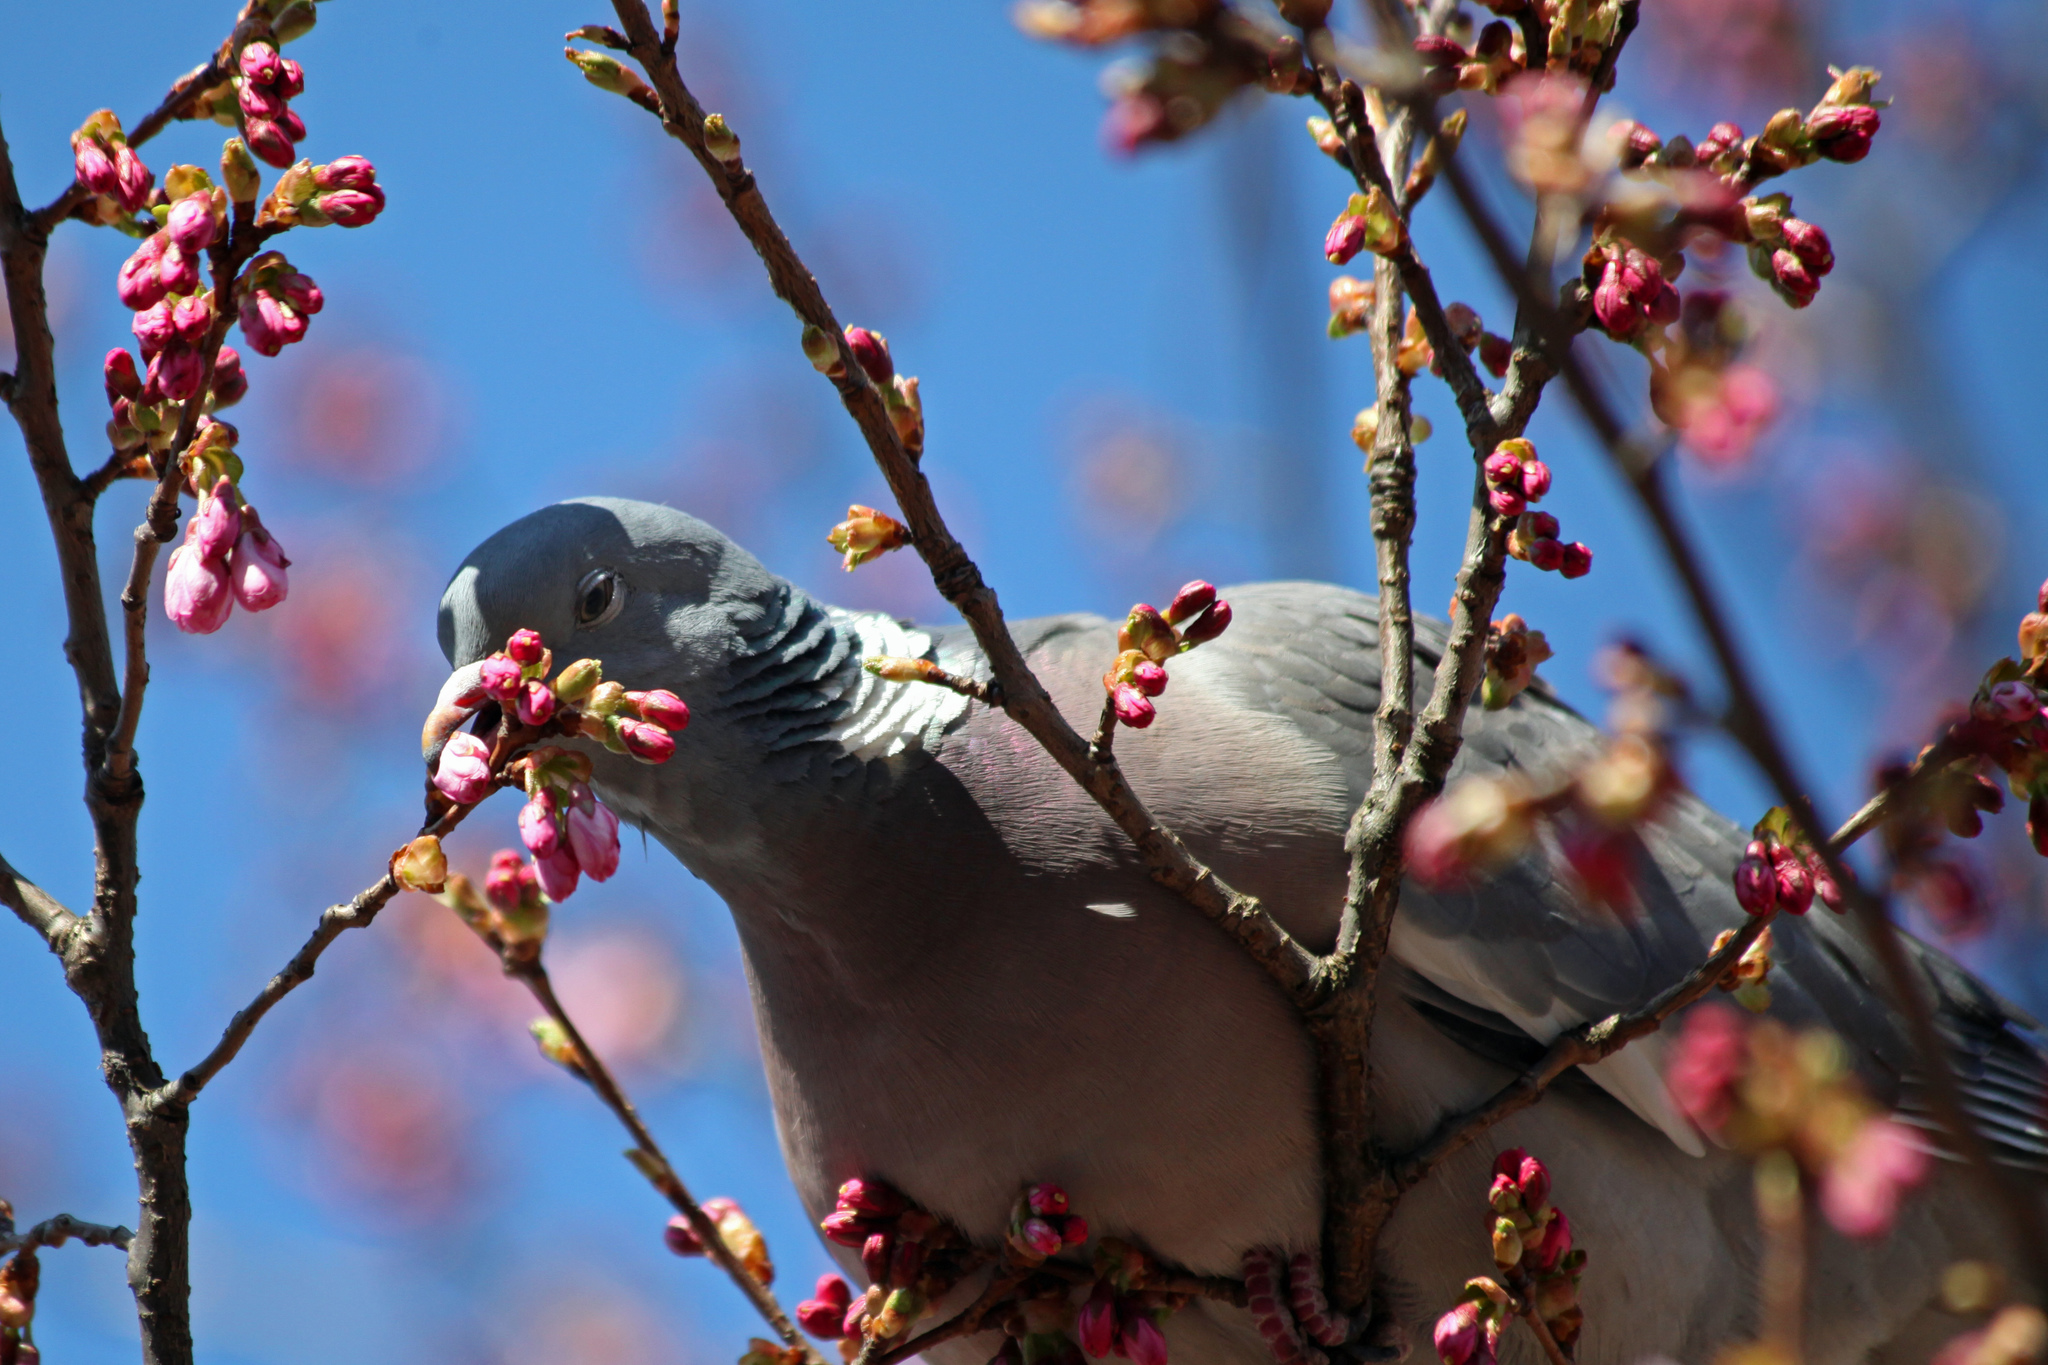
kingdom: Animalia
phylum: Chordata
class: Aves
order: Columbiformes
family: Columbidae
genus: Columba
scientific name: Columba palumbus
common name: Common wood pigeon
